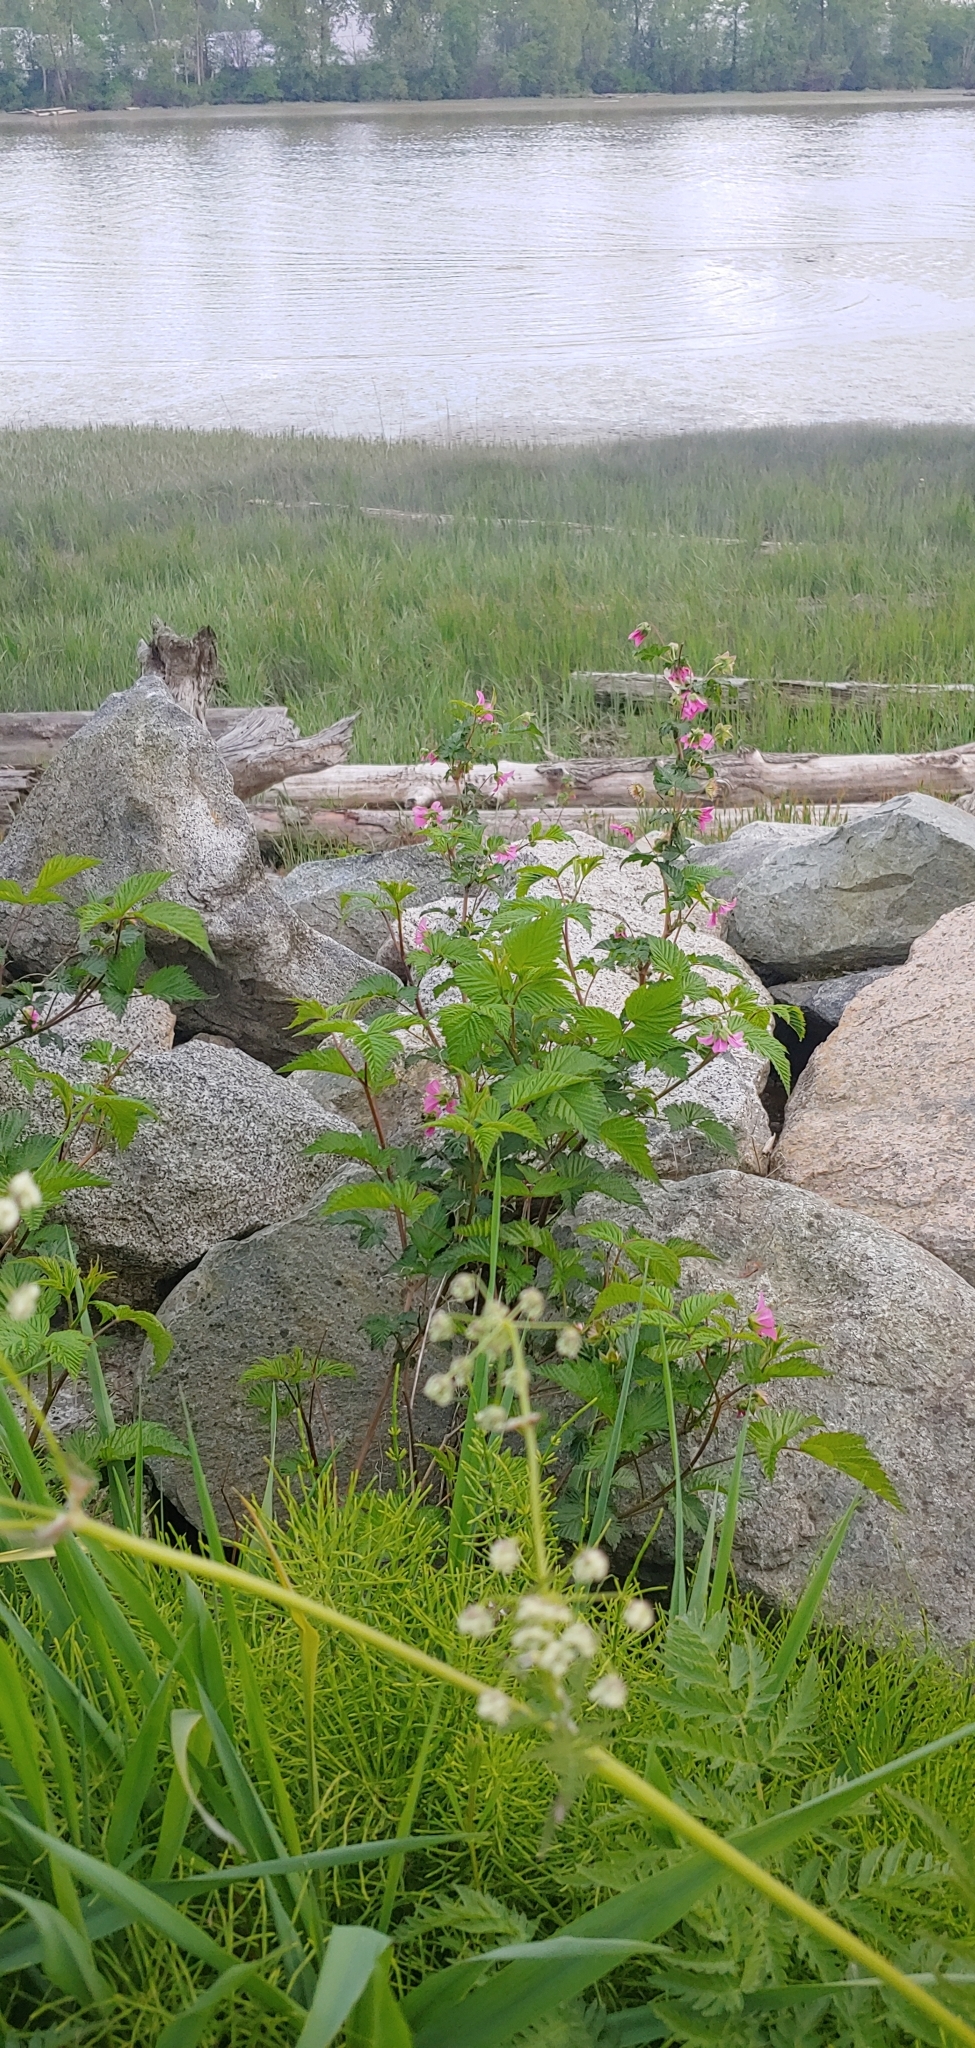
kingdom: Plantae
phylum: Tracheophyta
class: Magnoliopsida
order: Rosales
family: Rosaceae
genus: Rubus
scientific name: Rubus spectabilis
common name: Salmonberry
